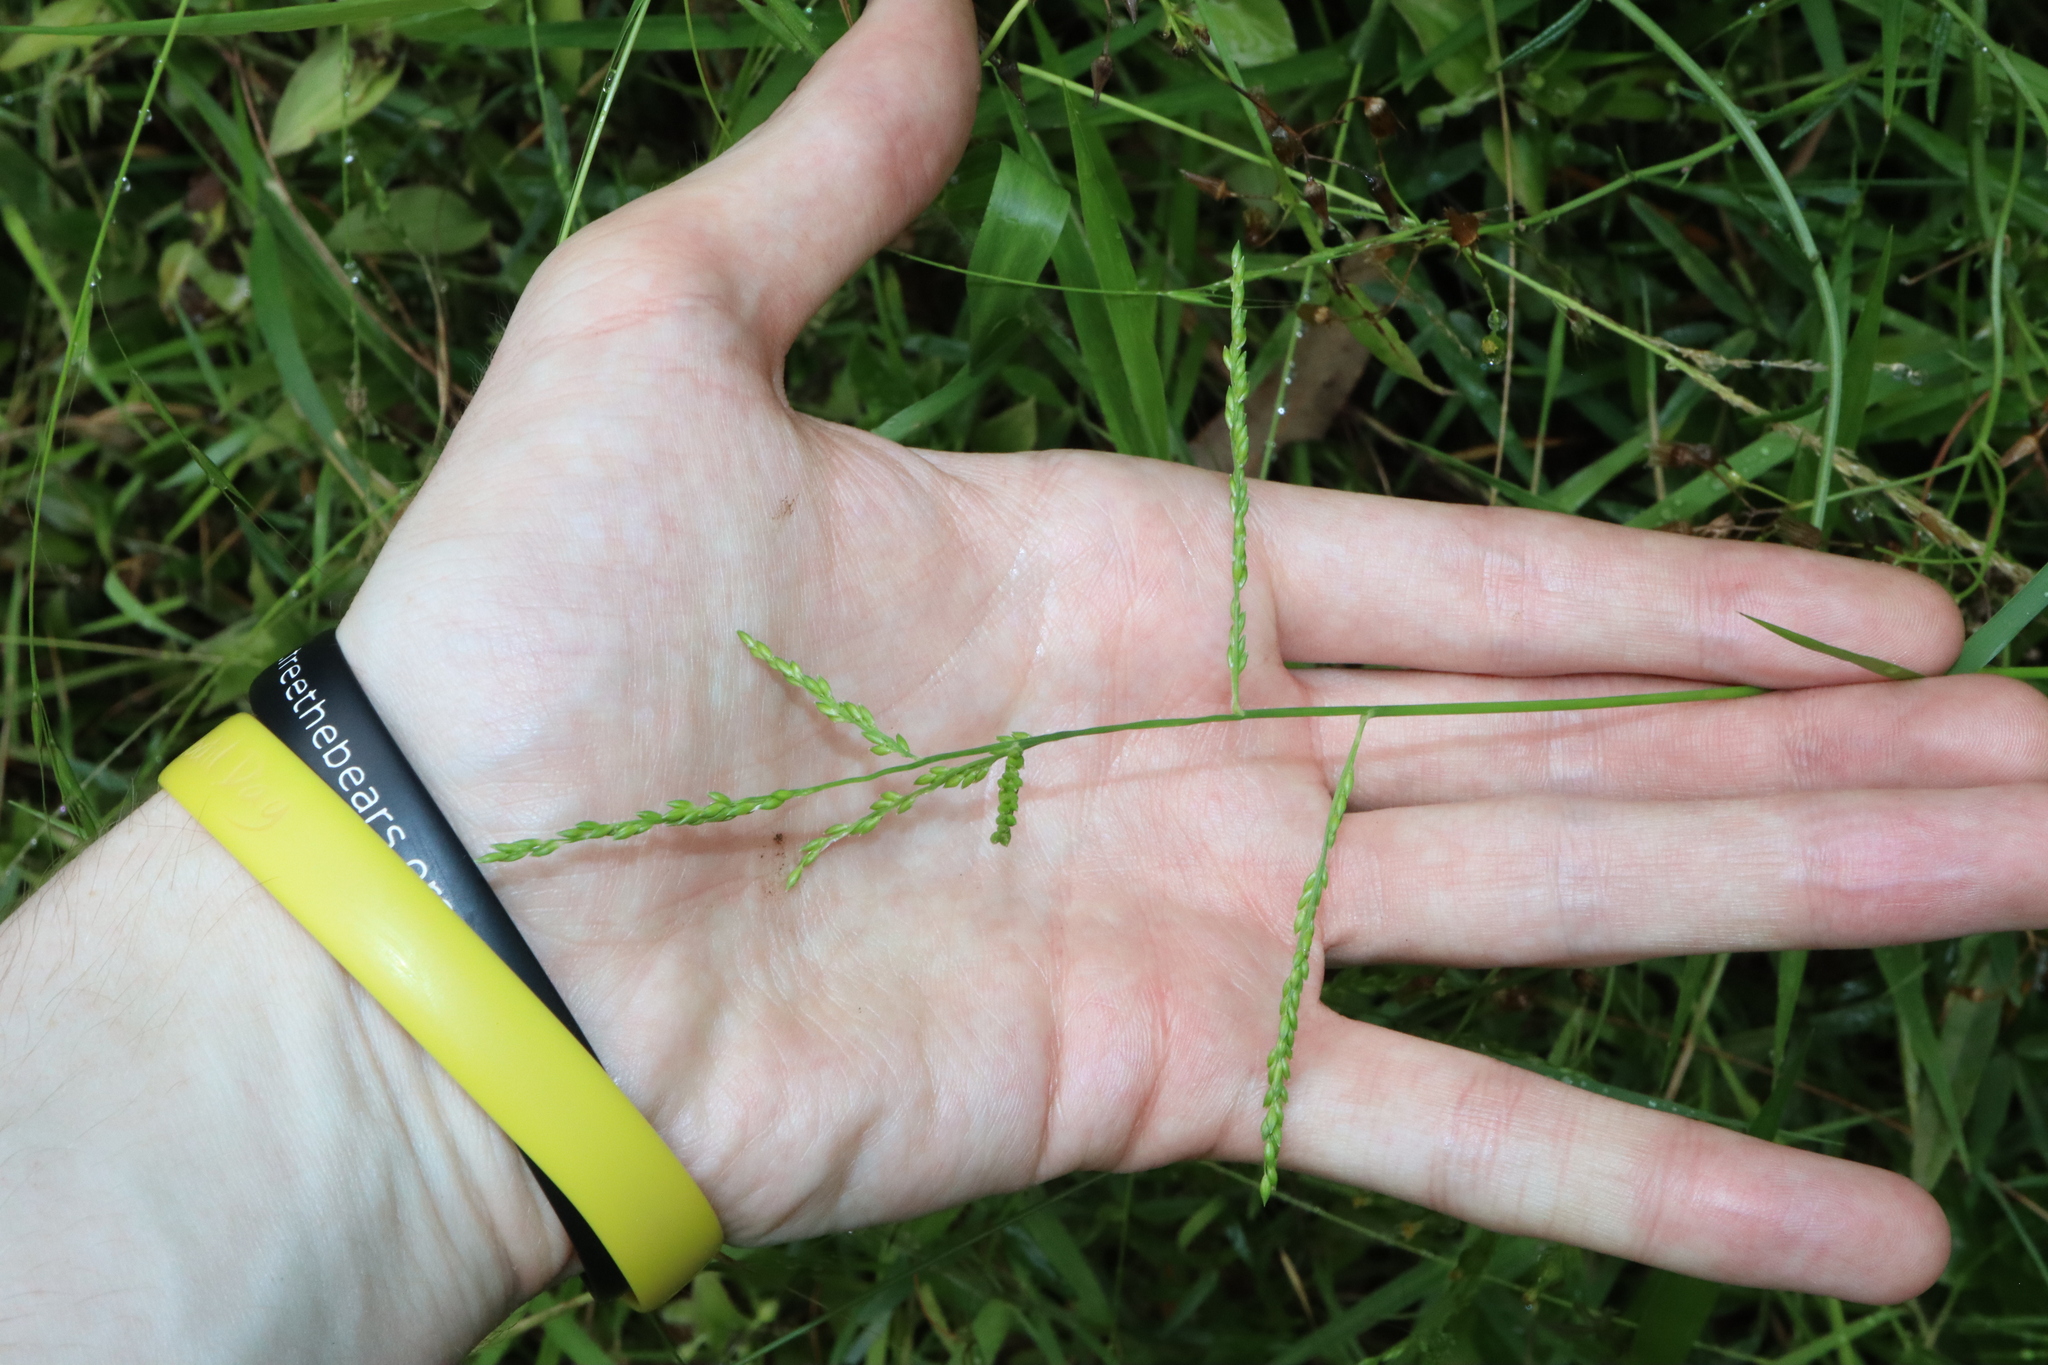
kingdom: Plantae
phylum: Tracheophyta
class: Liliopsida
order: Poales
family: Poaceae
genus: Entolasia
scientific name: Entolasia marginata
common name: Australian panicgrass
